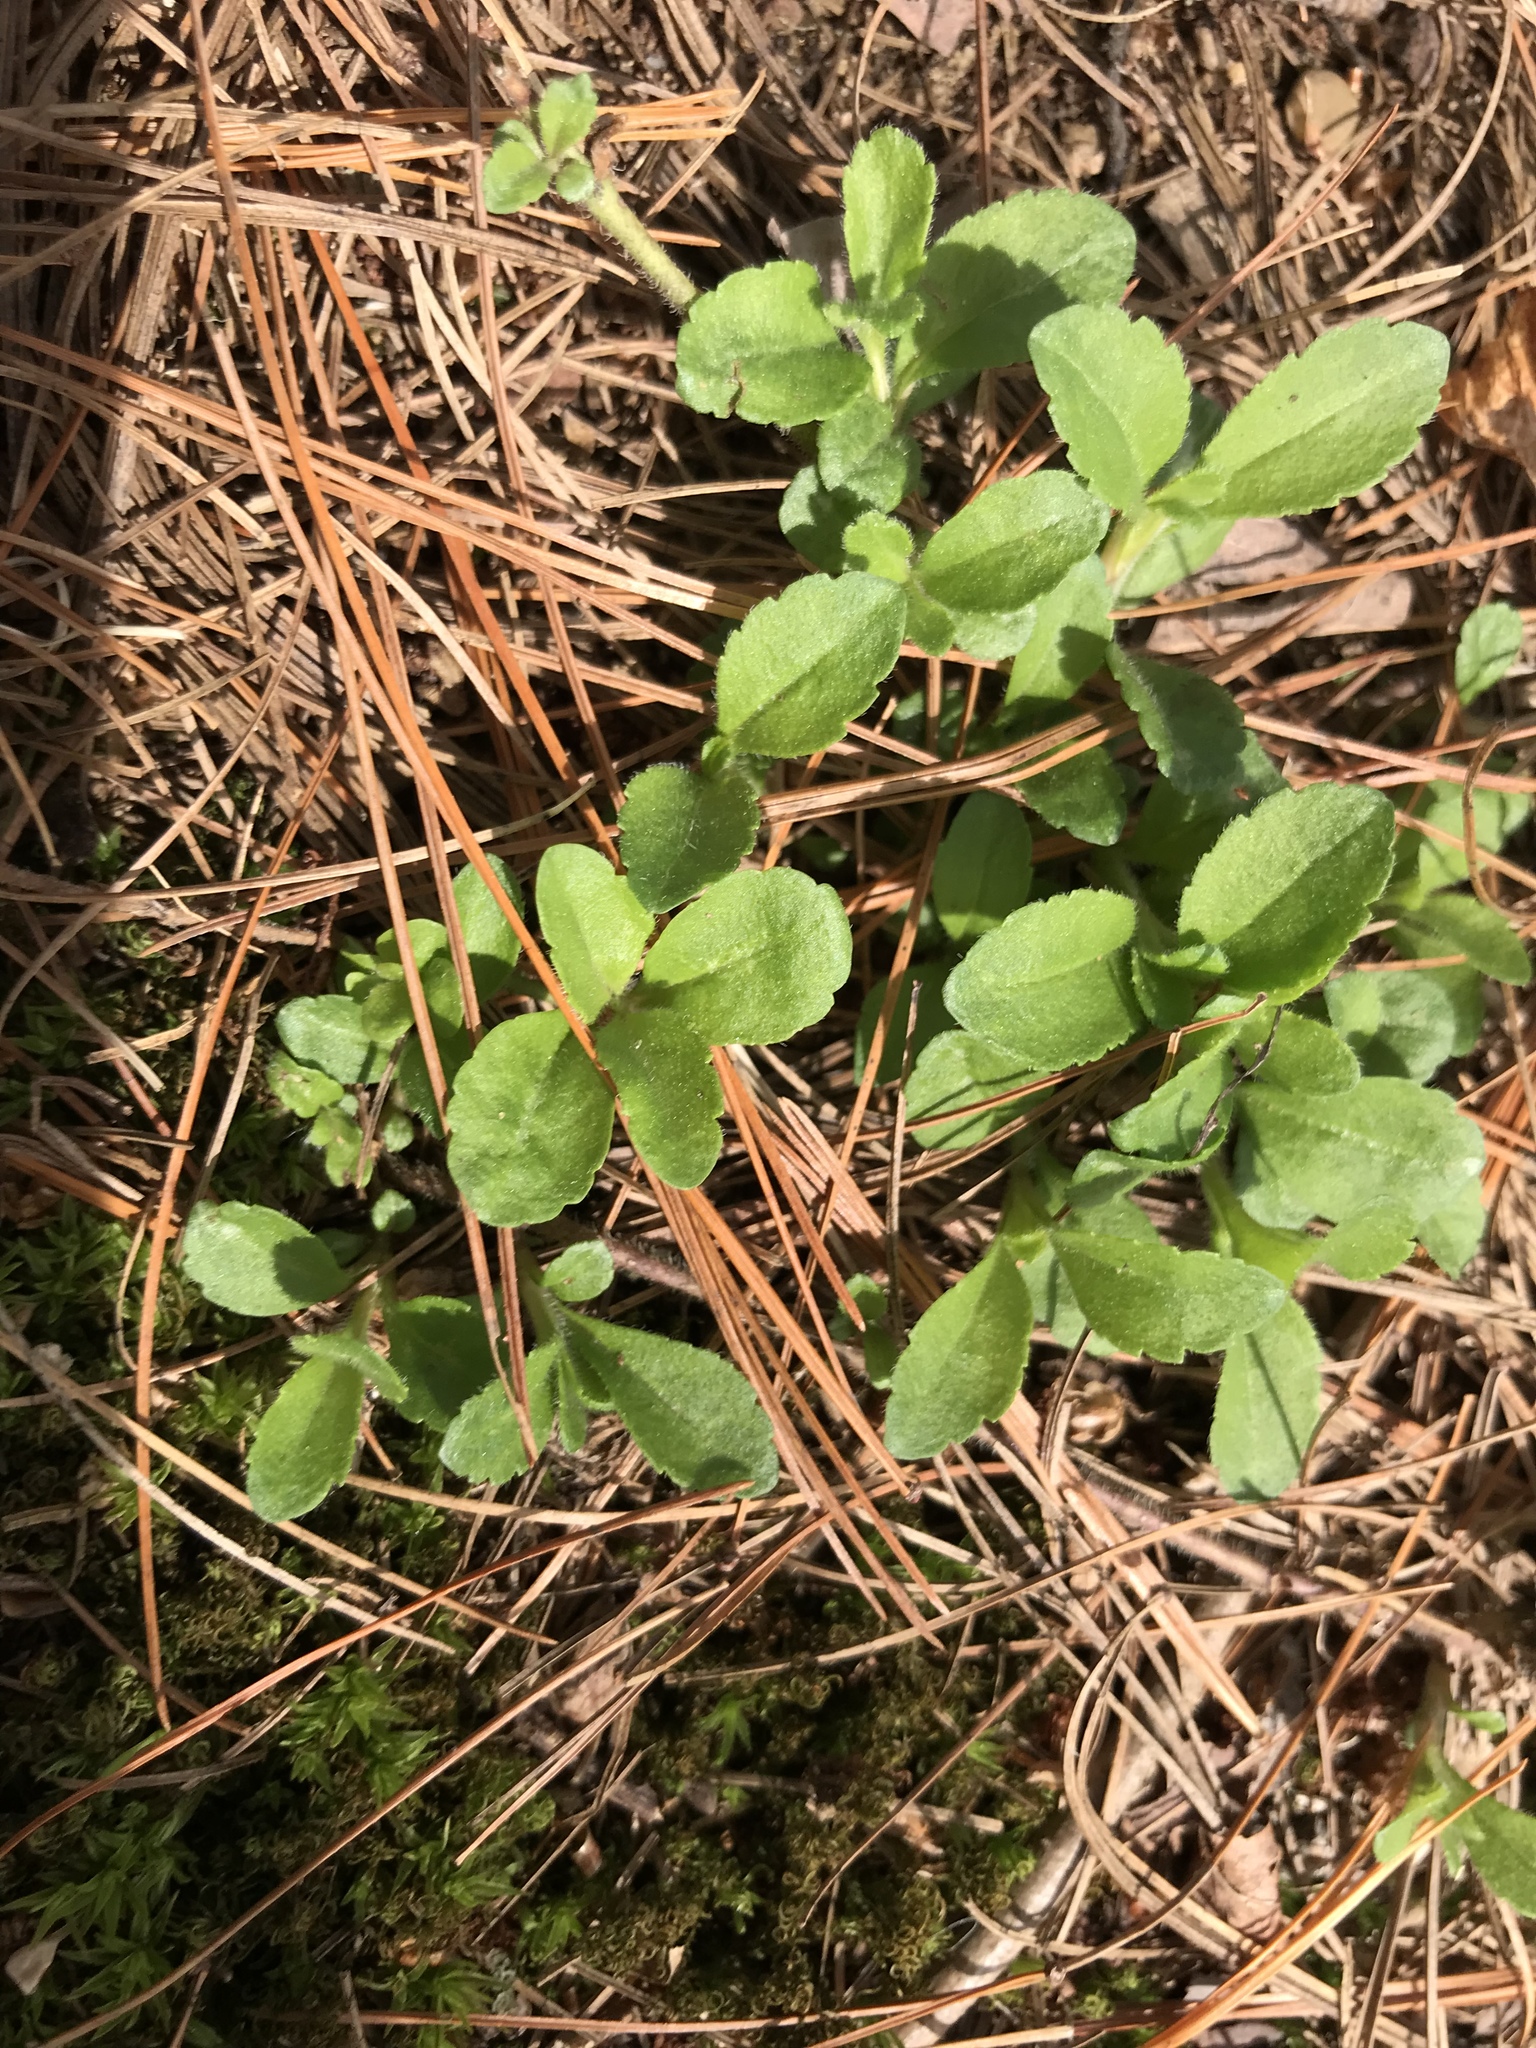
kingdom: Plantae
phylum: Tracheophyta
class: Magnoliopsida
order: Lamiales
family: Plantaginaceae
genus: Veronica
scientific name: Veronica officinalis
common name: Common speedwell
